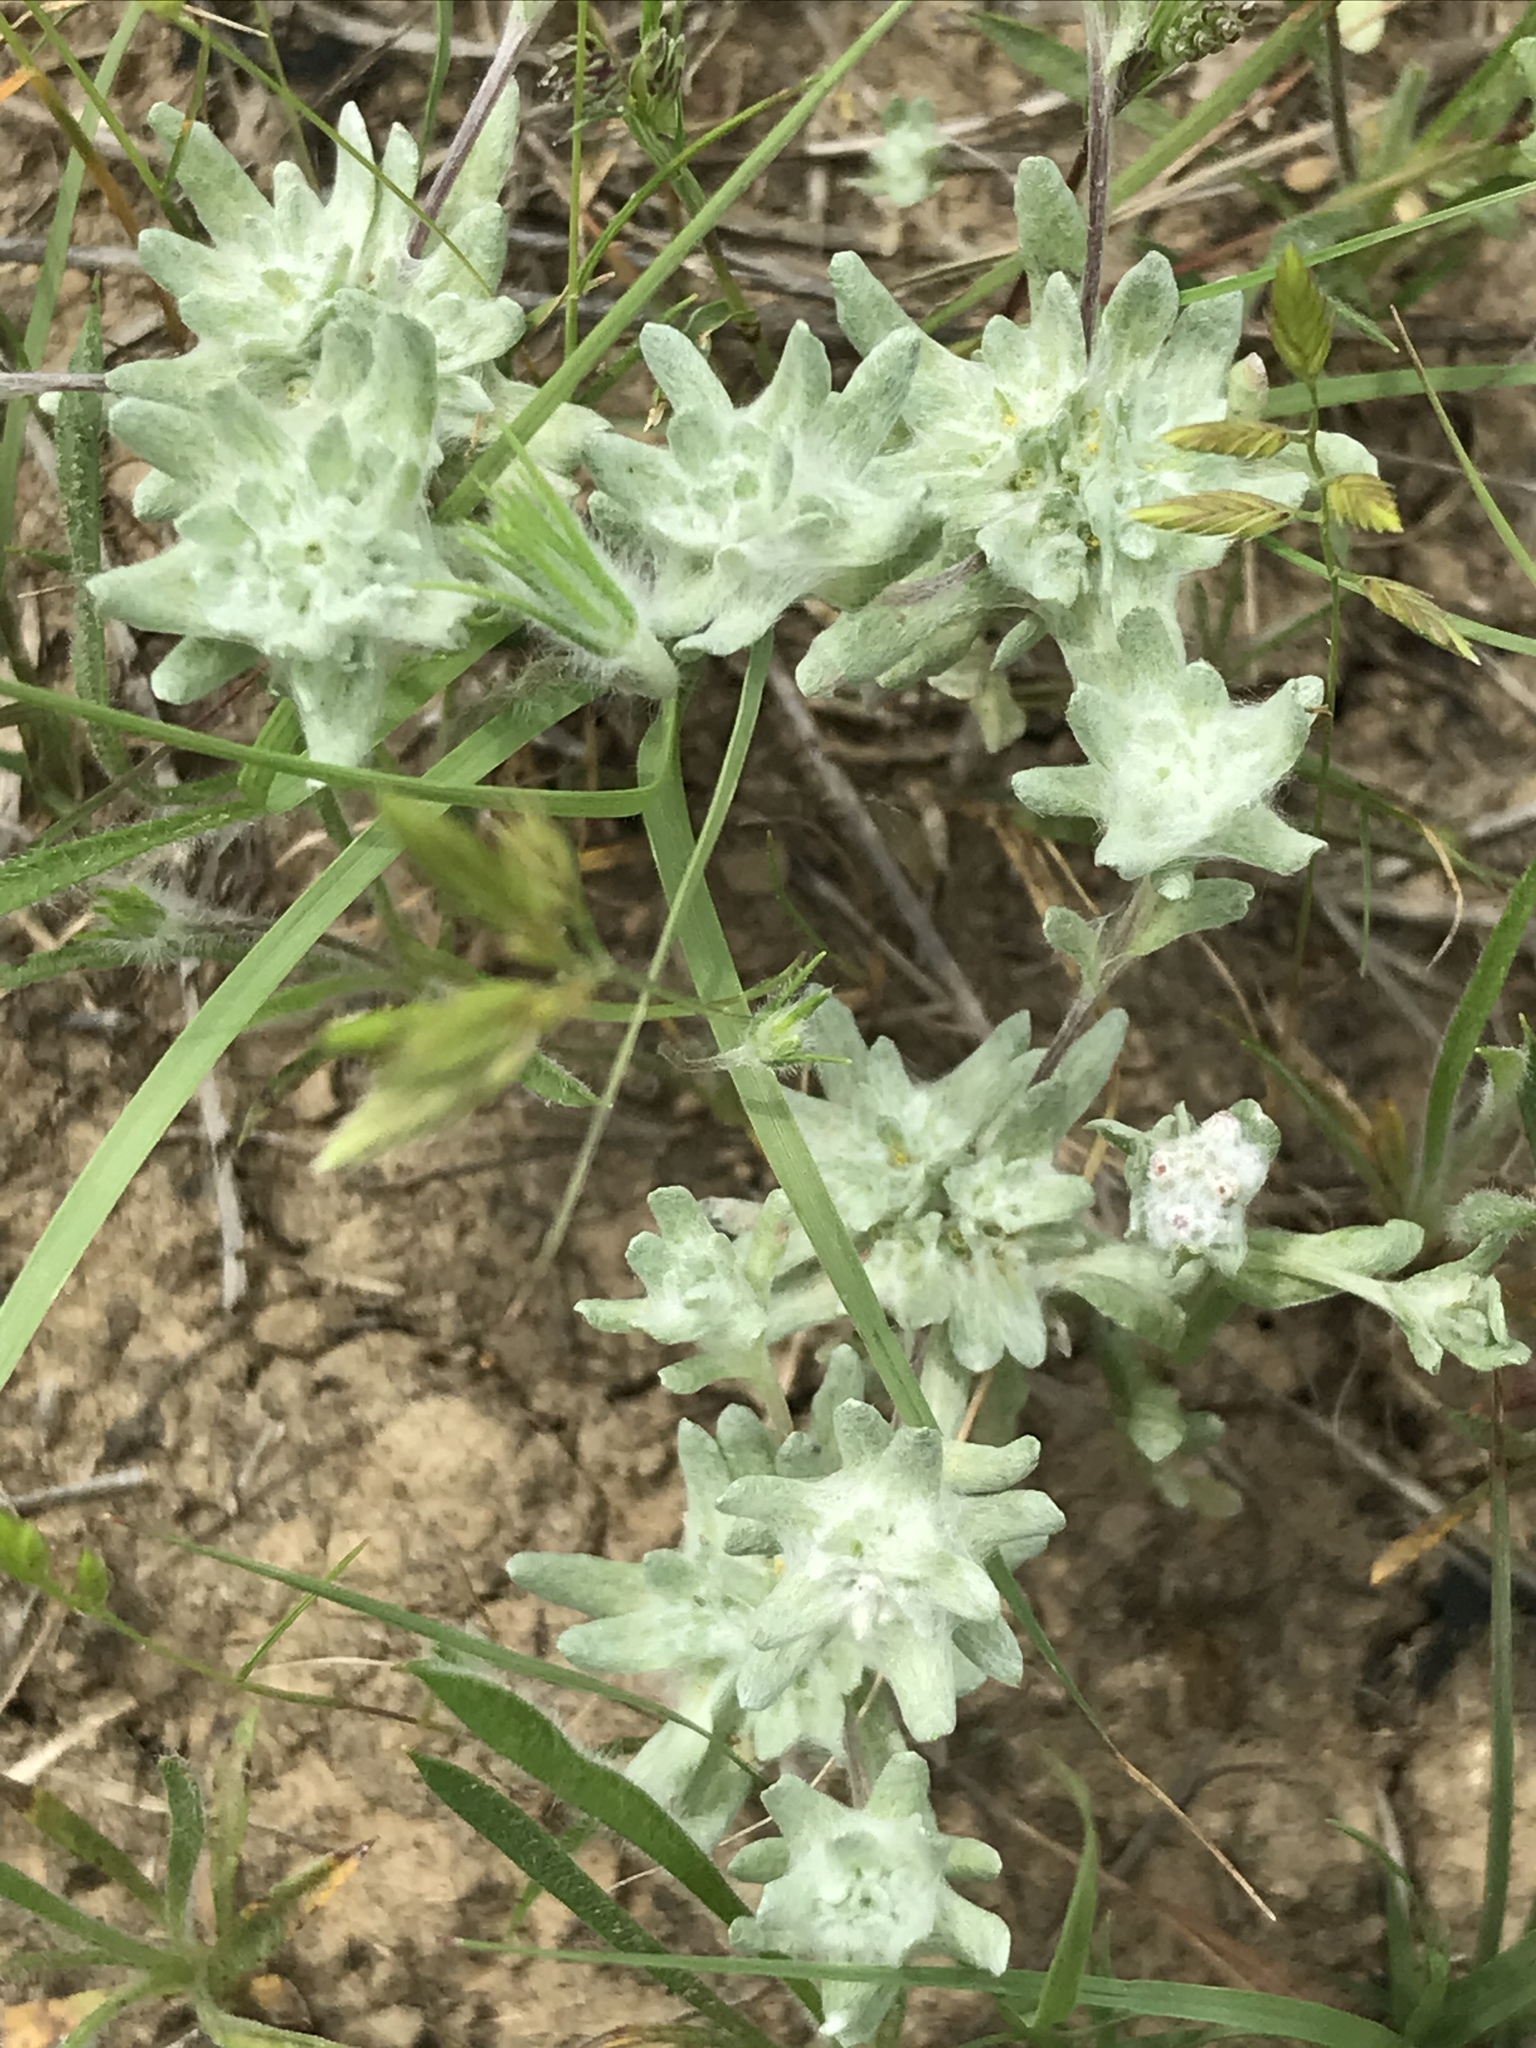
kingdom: Plantae
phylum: Tracheophyta
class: Magnoliopsida
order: Asterales
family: Asteraceae
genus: Diaperia
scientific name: Diaperia prolifera
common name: Big-head rabbit-tobacco
